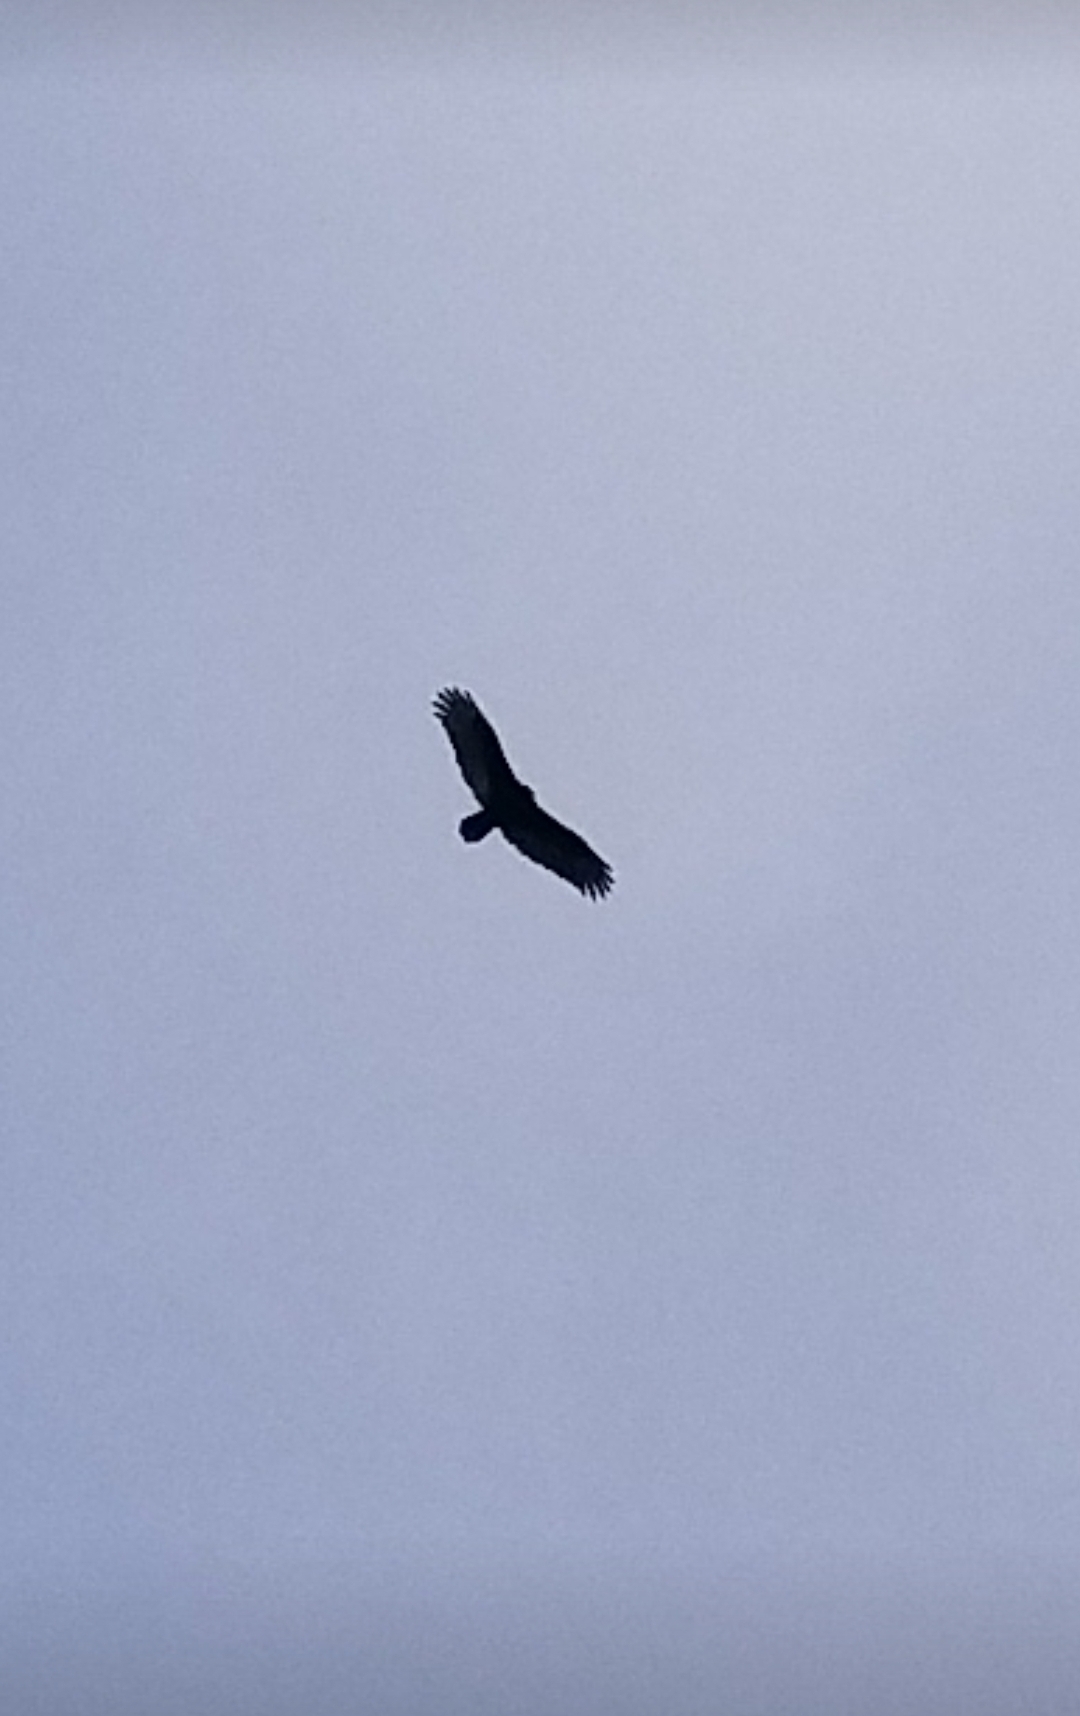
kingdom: Animalia
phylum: Chordata
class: Aves
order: Accipitriformes
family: Cathartidae
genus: Cathartes
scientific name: Cathartes aura
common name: Turkey vulture
